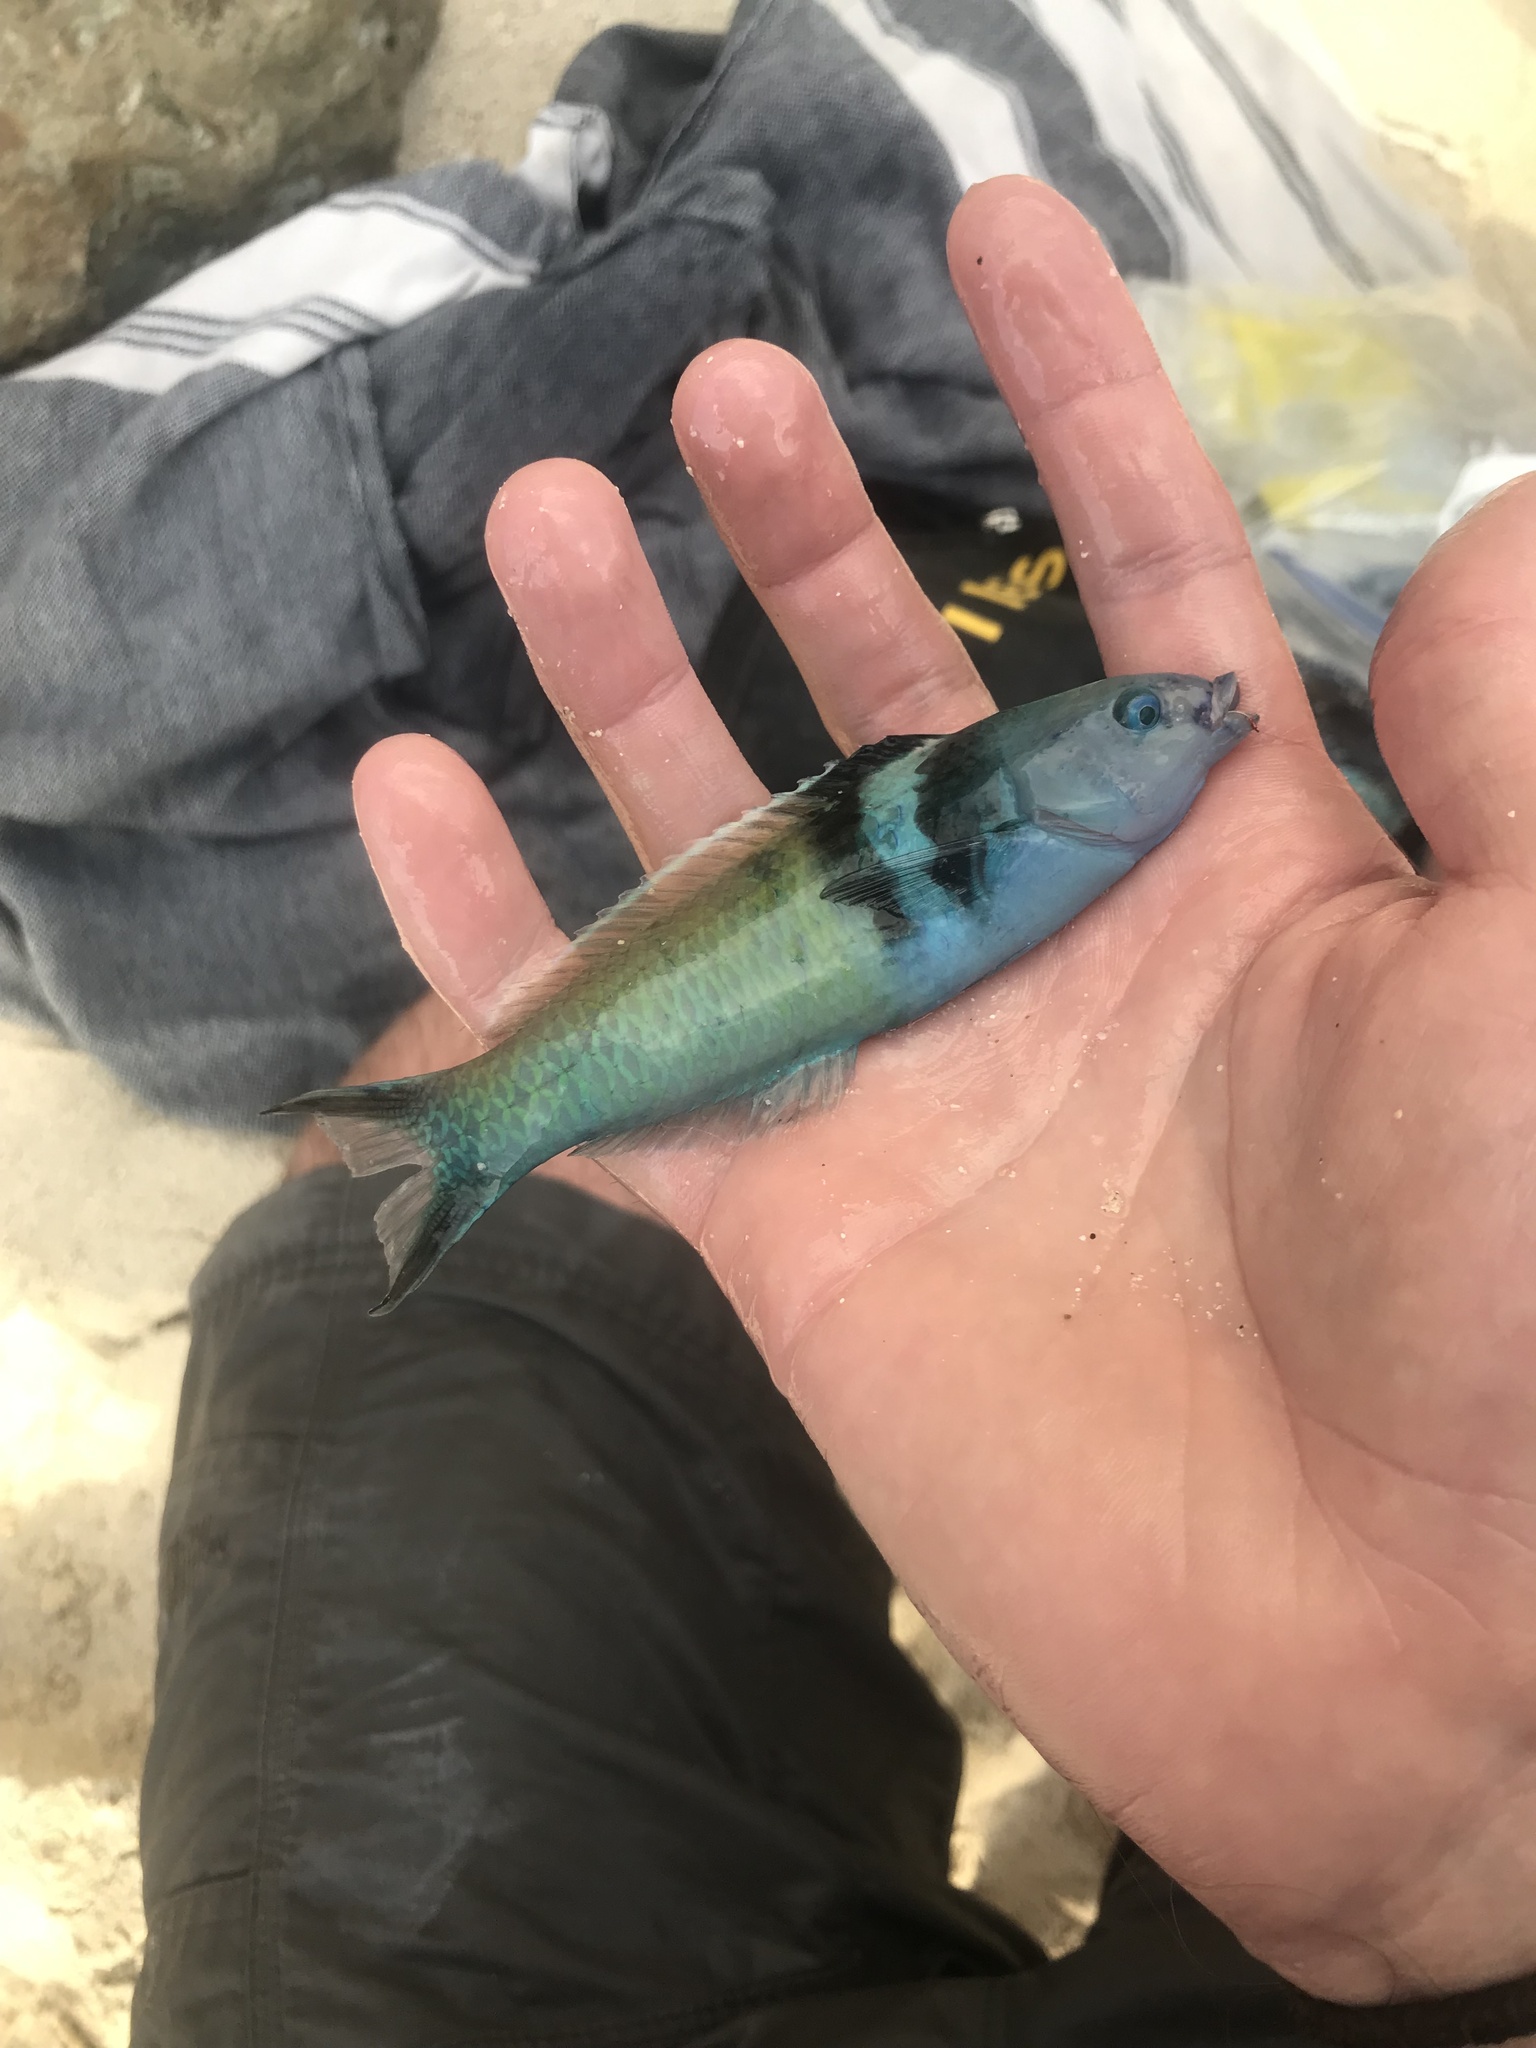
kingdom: Animalia
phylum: Chordata
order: Perciformes
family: Labridae
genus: Thalassoma
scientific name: Thalassoma bifasciatum
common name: Bluehead wrasse
